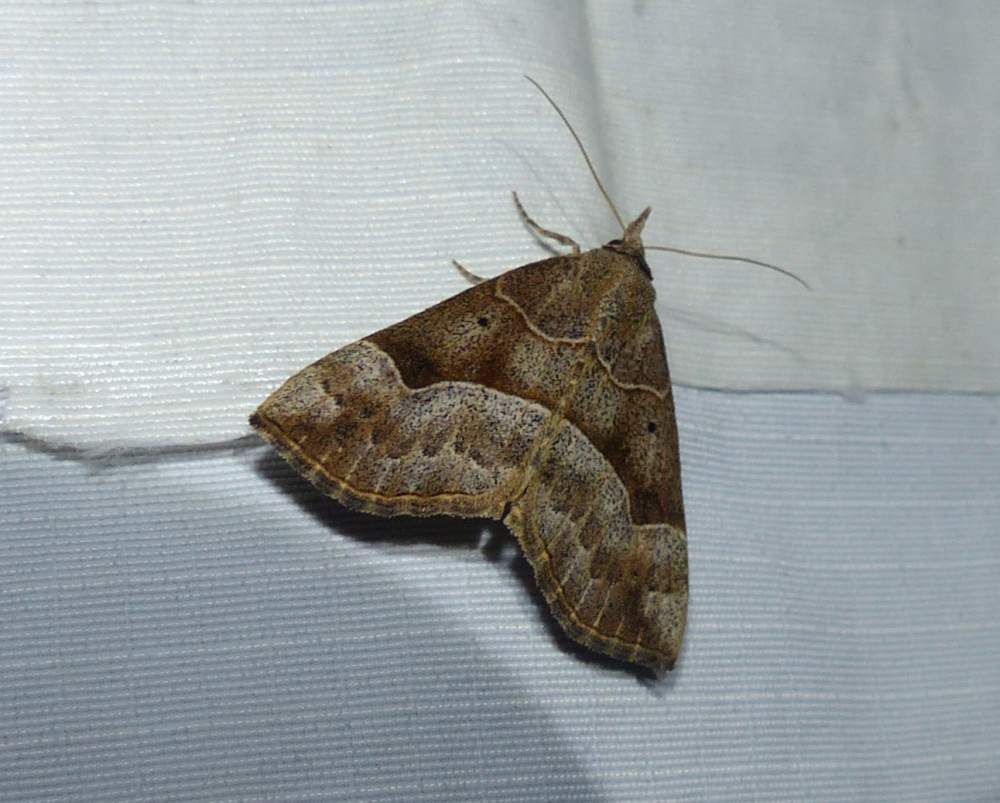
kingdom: Animalia
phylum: Arthropoda
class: Insecta
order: Lepidoptera
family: Erebidae
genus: Hypena
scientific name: Hypena deceptalis
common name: Deceptive snout
